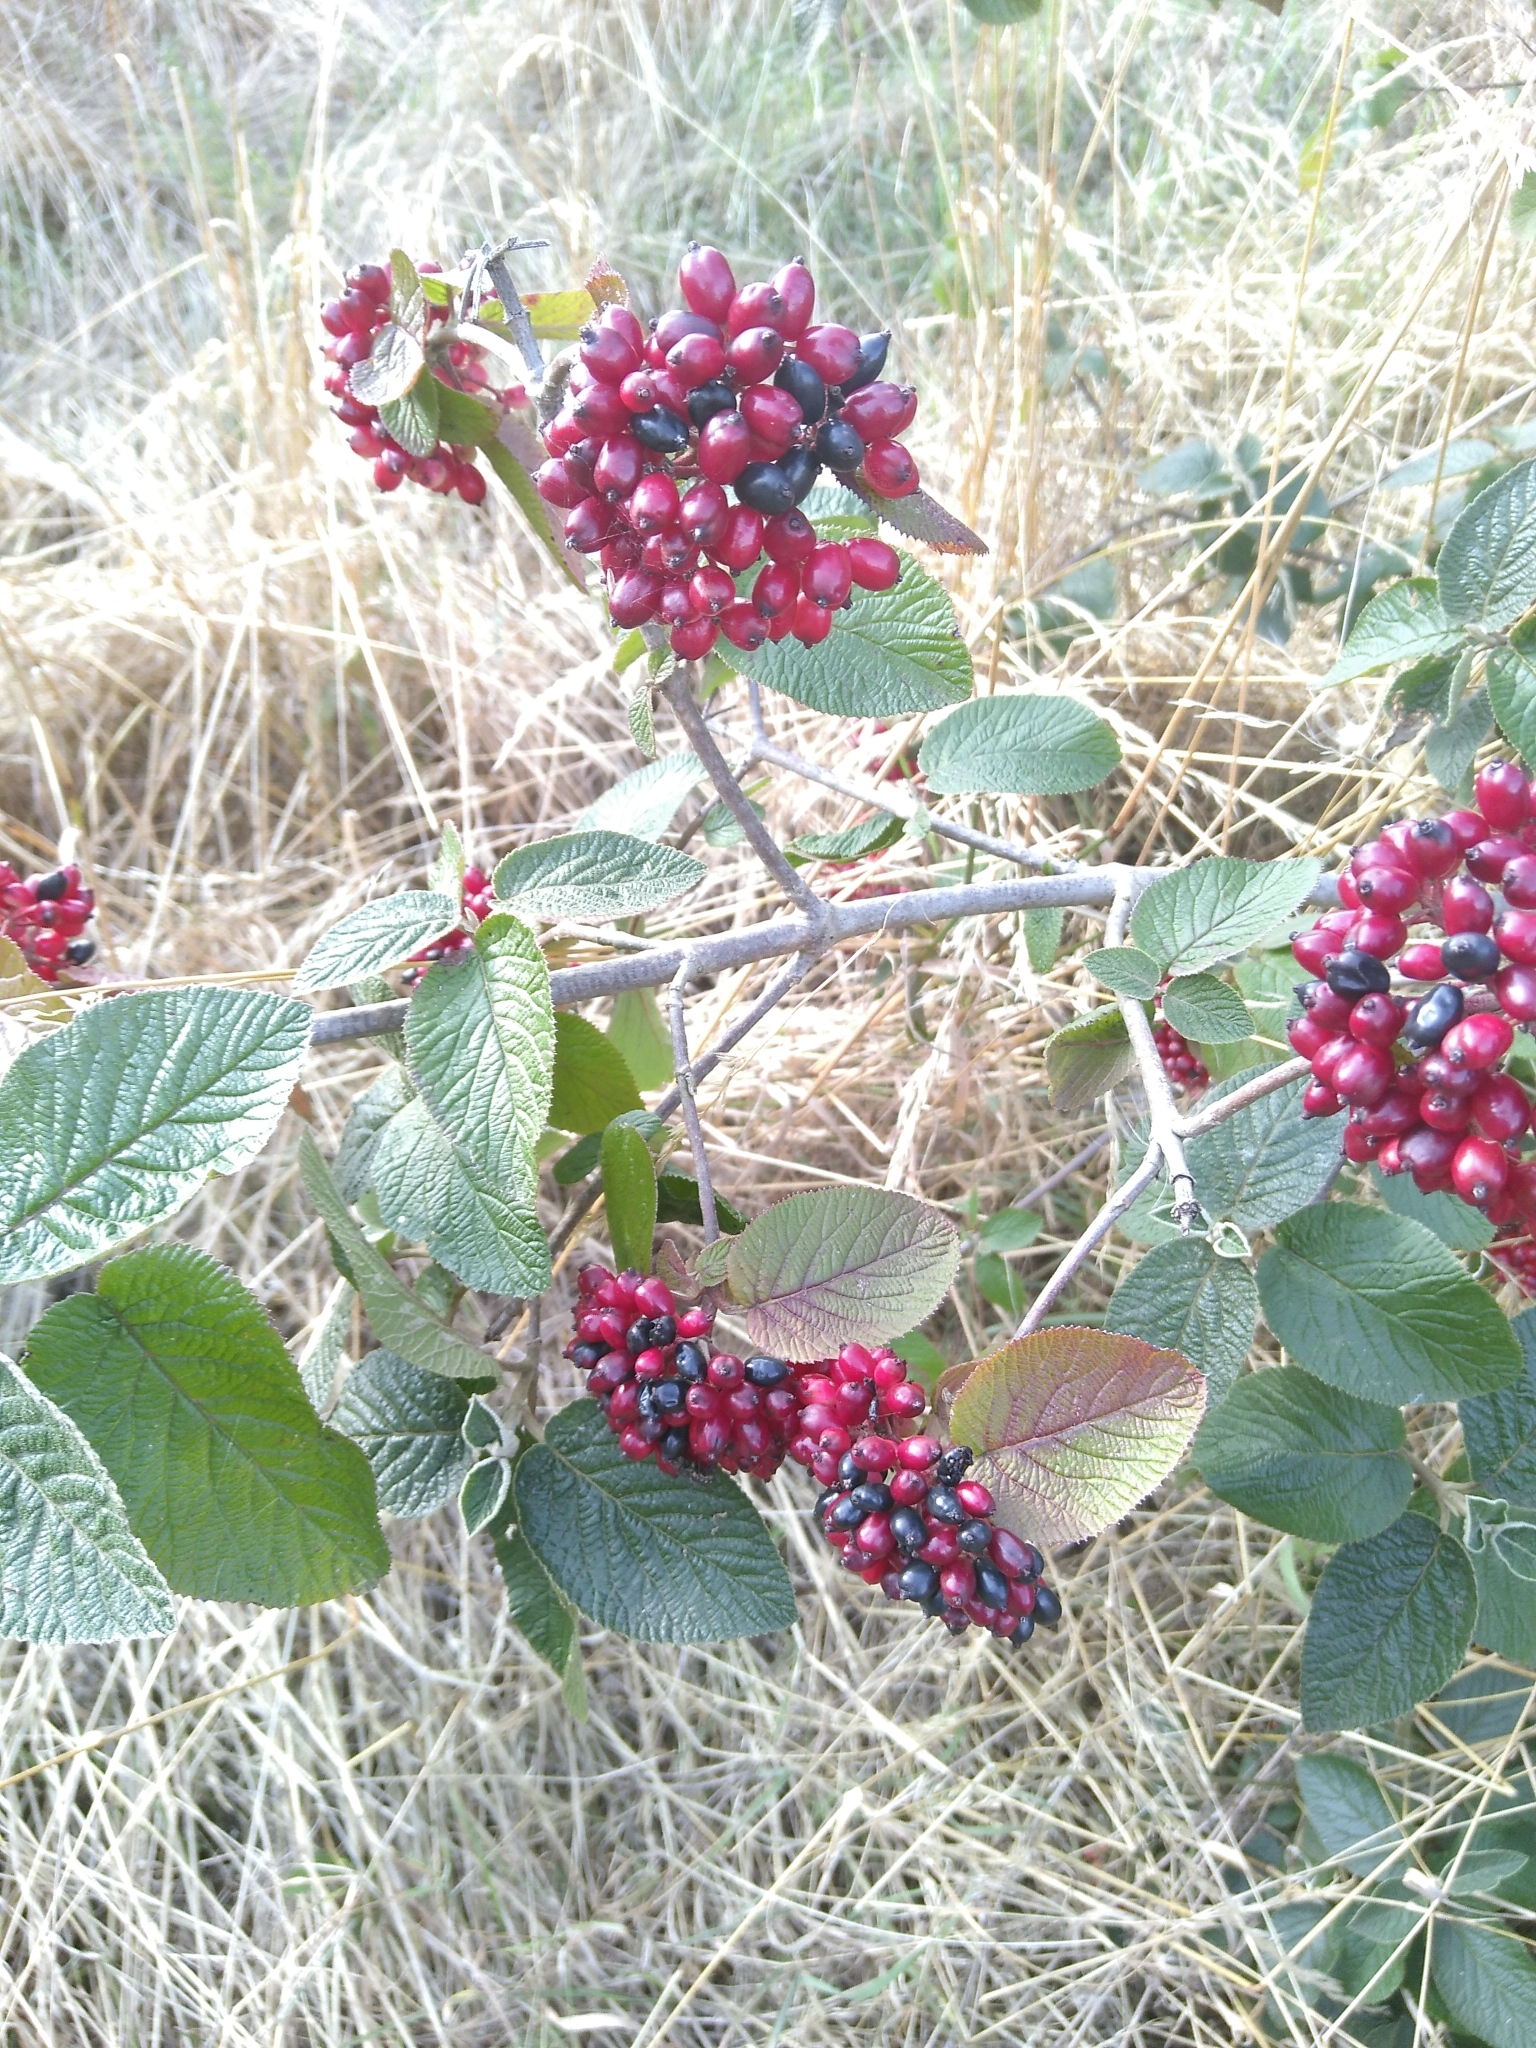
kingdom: Plantae
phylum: Tracheophyta
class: Magnoliopsida
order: Dipsacales
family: Viburnaceae
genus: Viburnum
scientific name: Viburnum lantana
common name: Wayfaring tree
